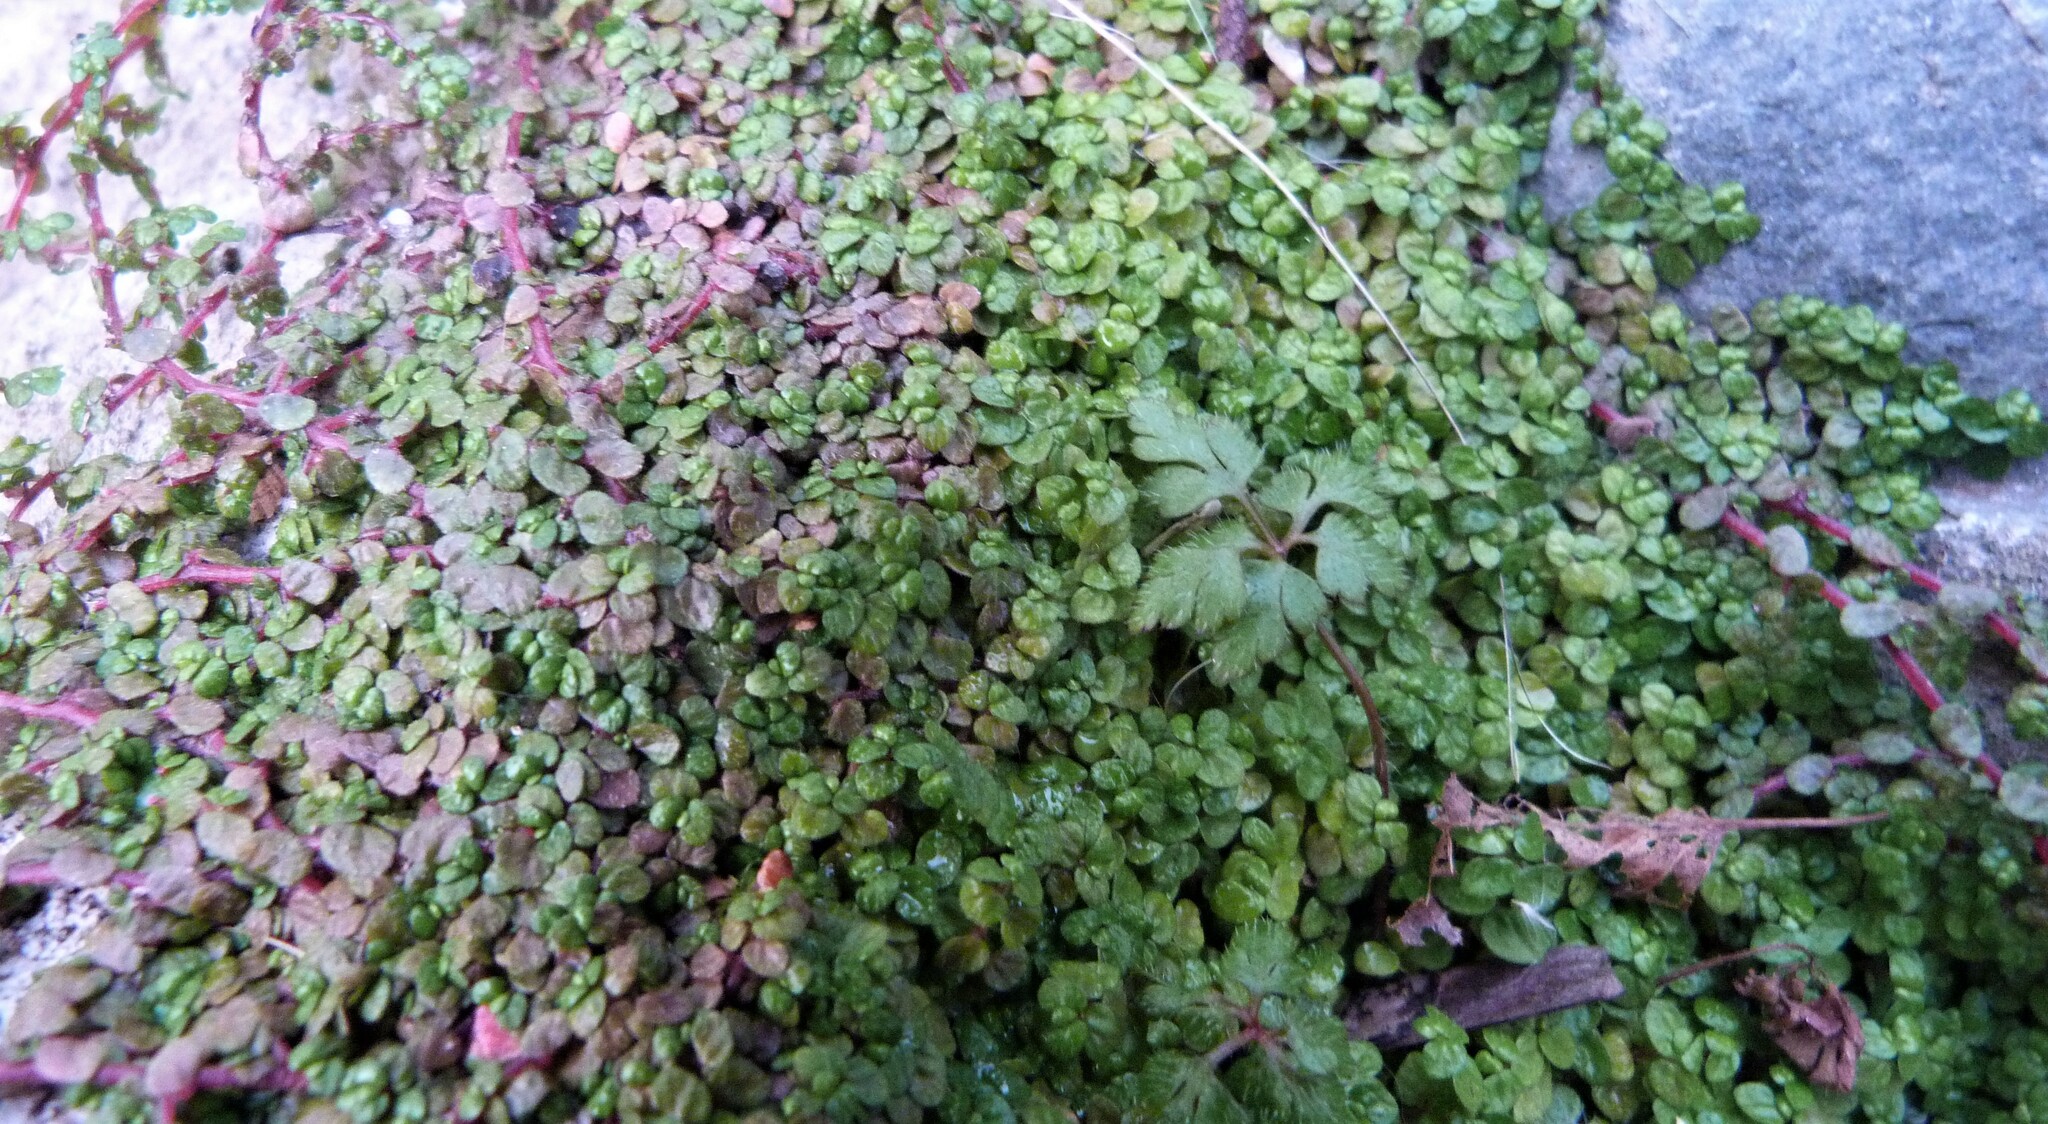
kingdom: Plantae
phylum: Tracheophyta
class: Magnoliopsida
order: Rosales
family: Urticaceae
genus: Soleirolia
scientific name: Soleirolia soleirolii
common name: Mind-your-own-business
